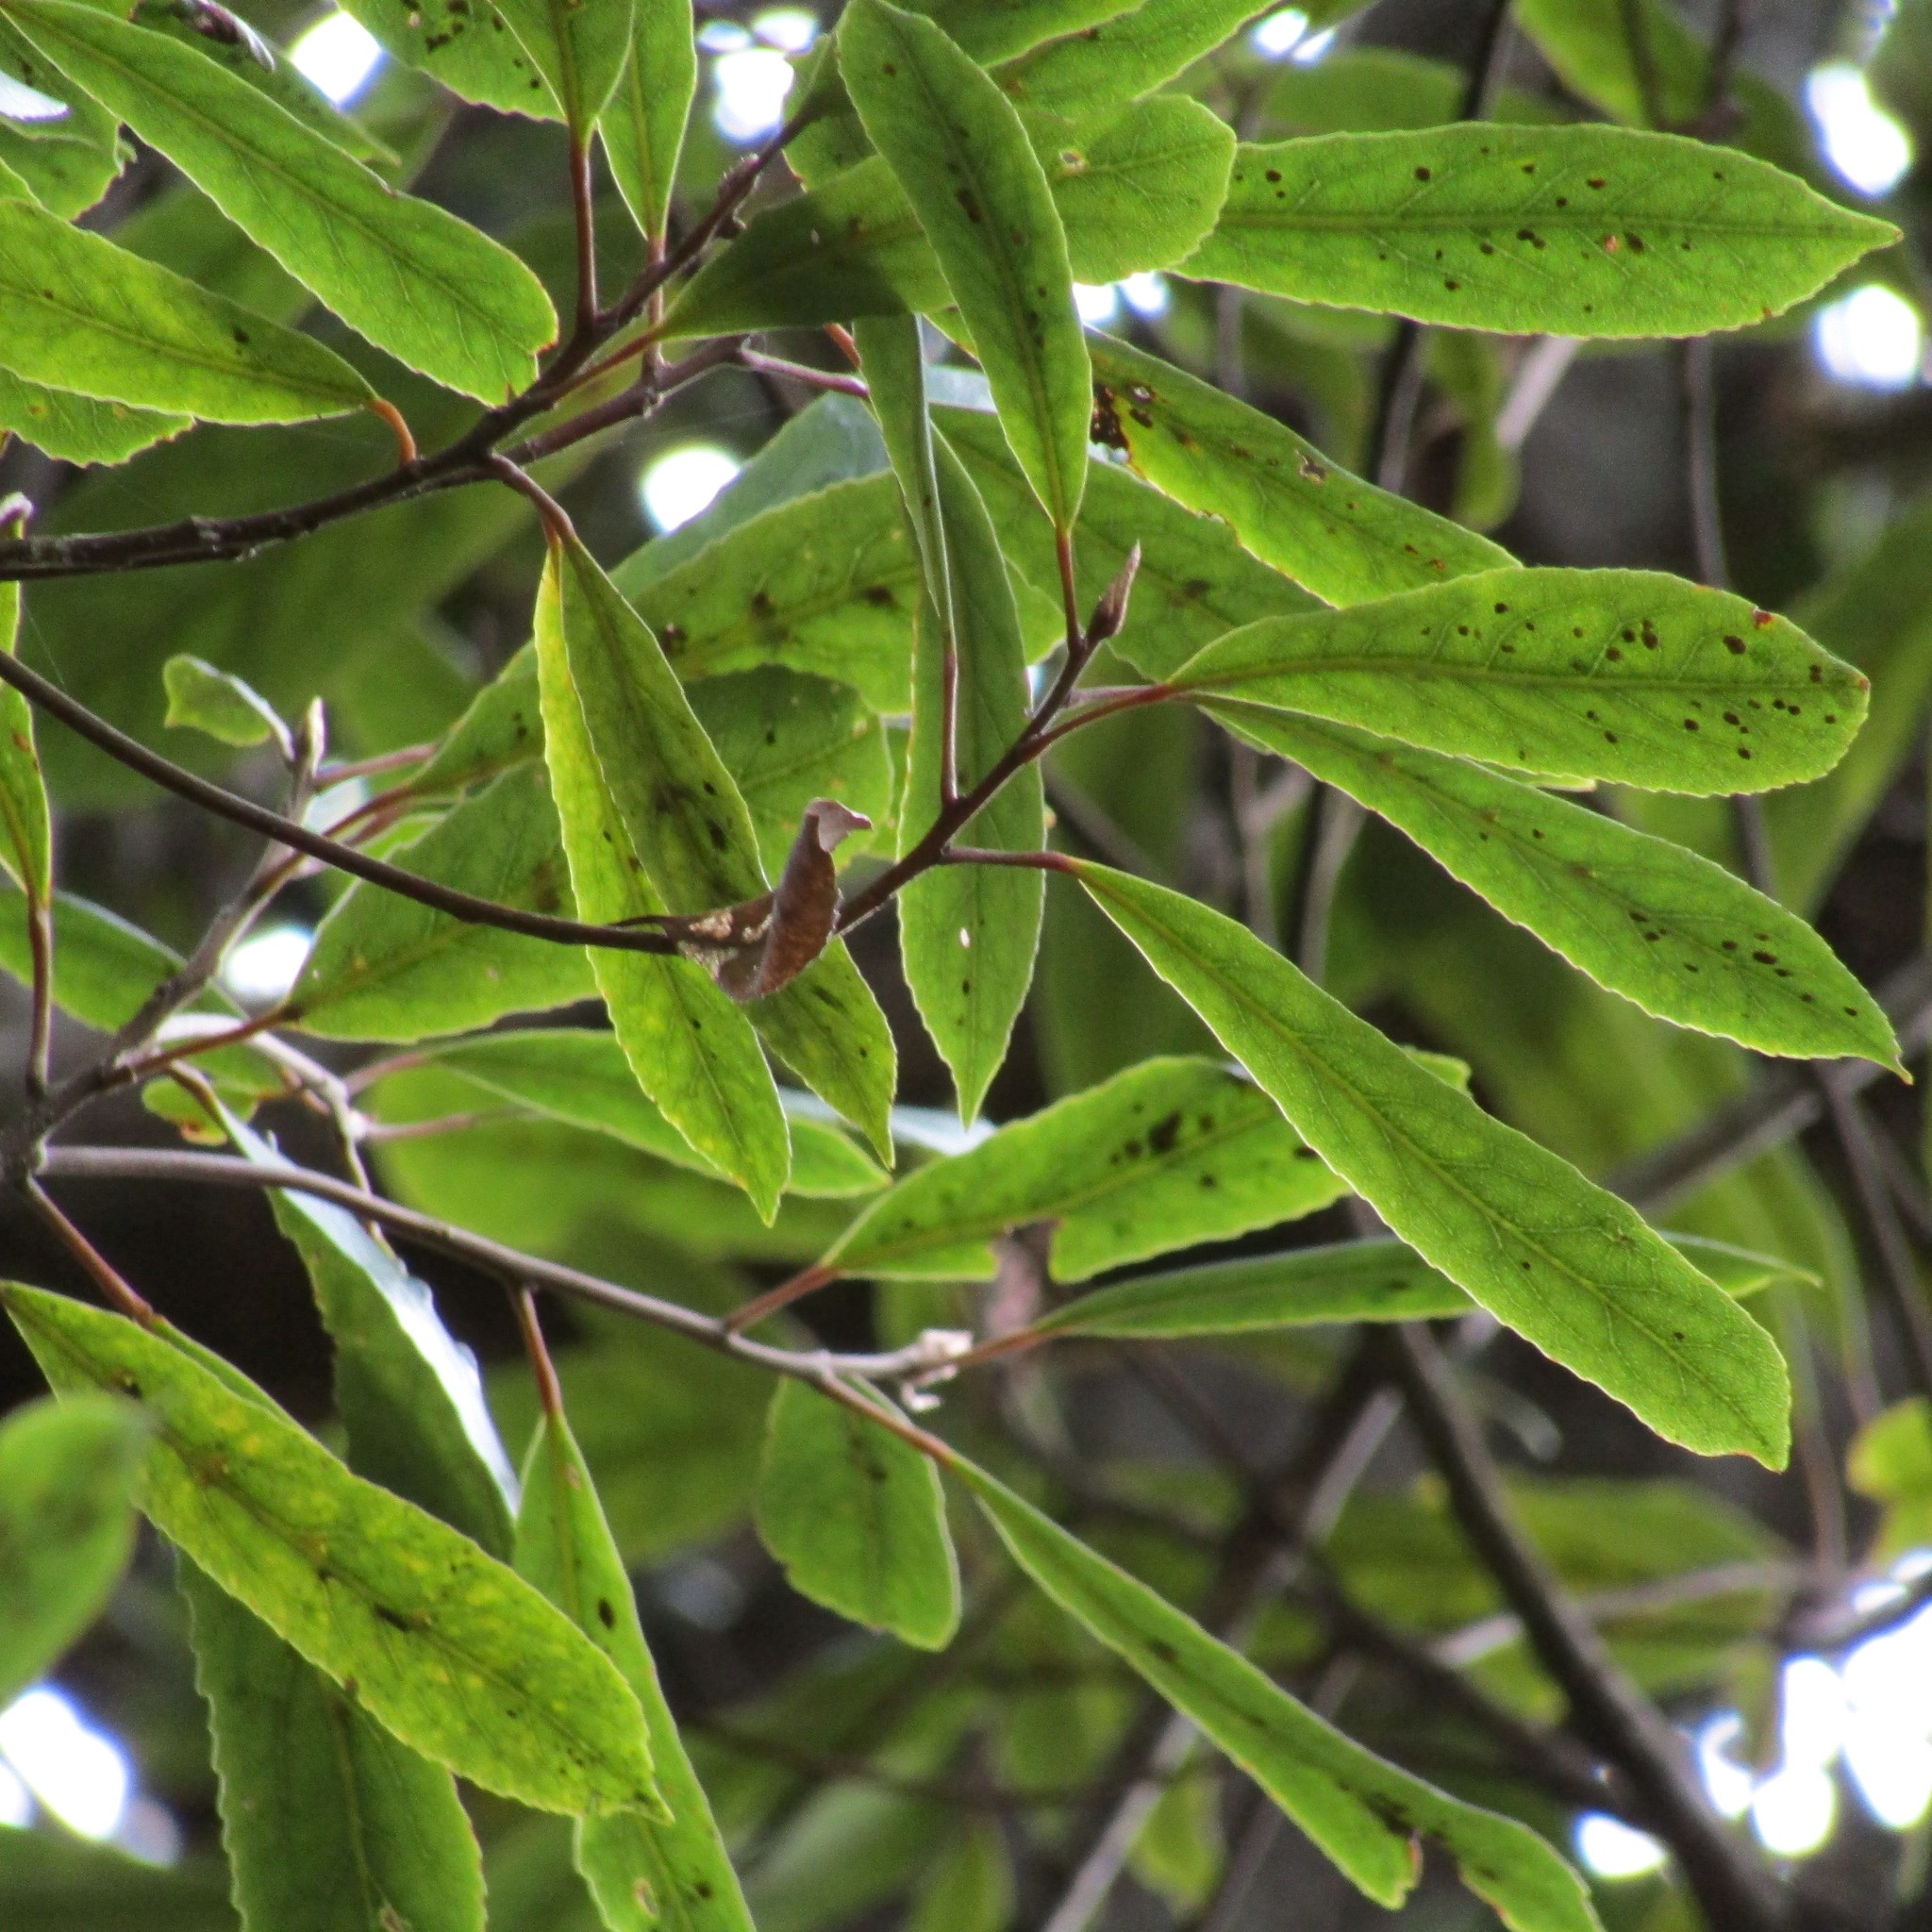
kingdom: Plantae
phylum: Tracheophyta
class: Magnoliopsida
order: Oxalidales
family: Elaeocarpaceae
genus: Elaeocarpus
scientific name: Elaeocarpus dentatus
